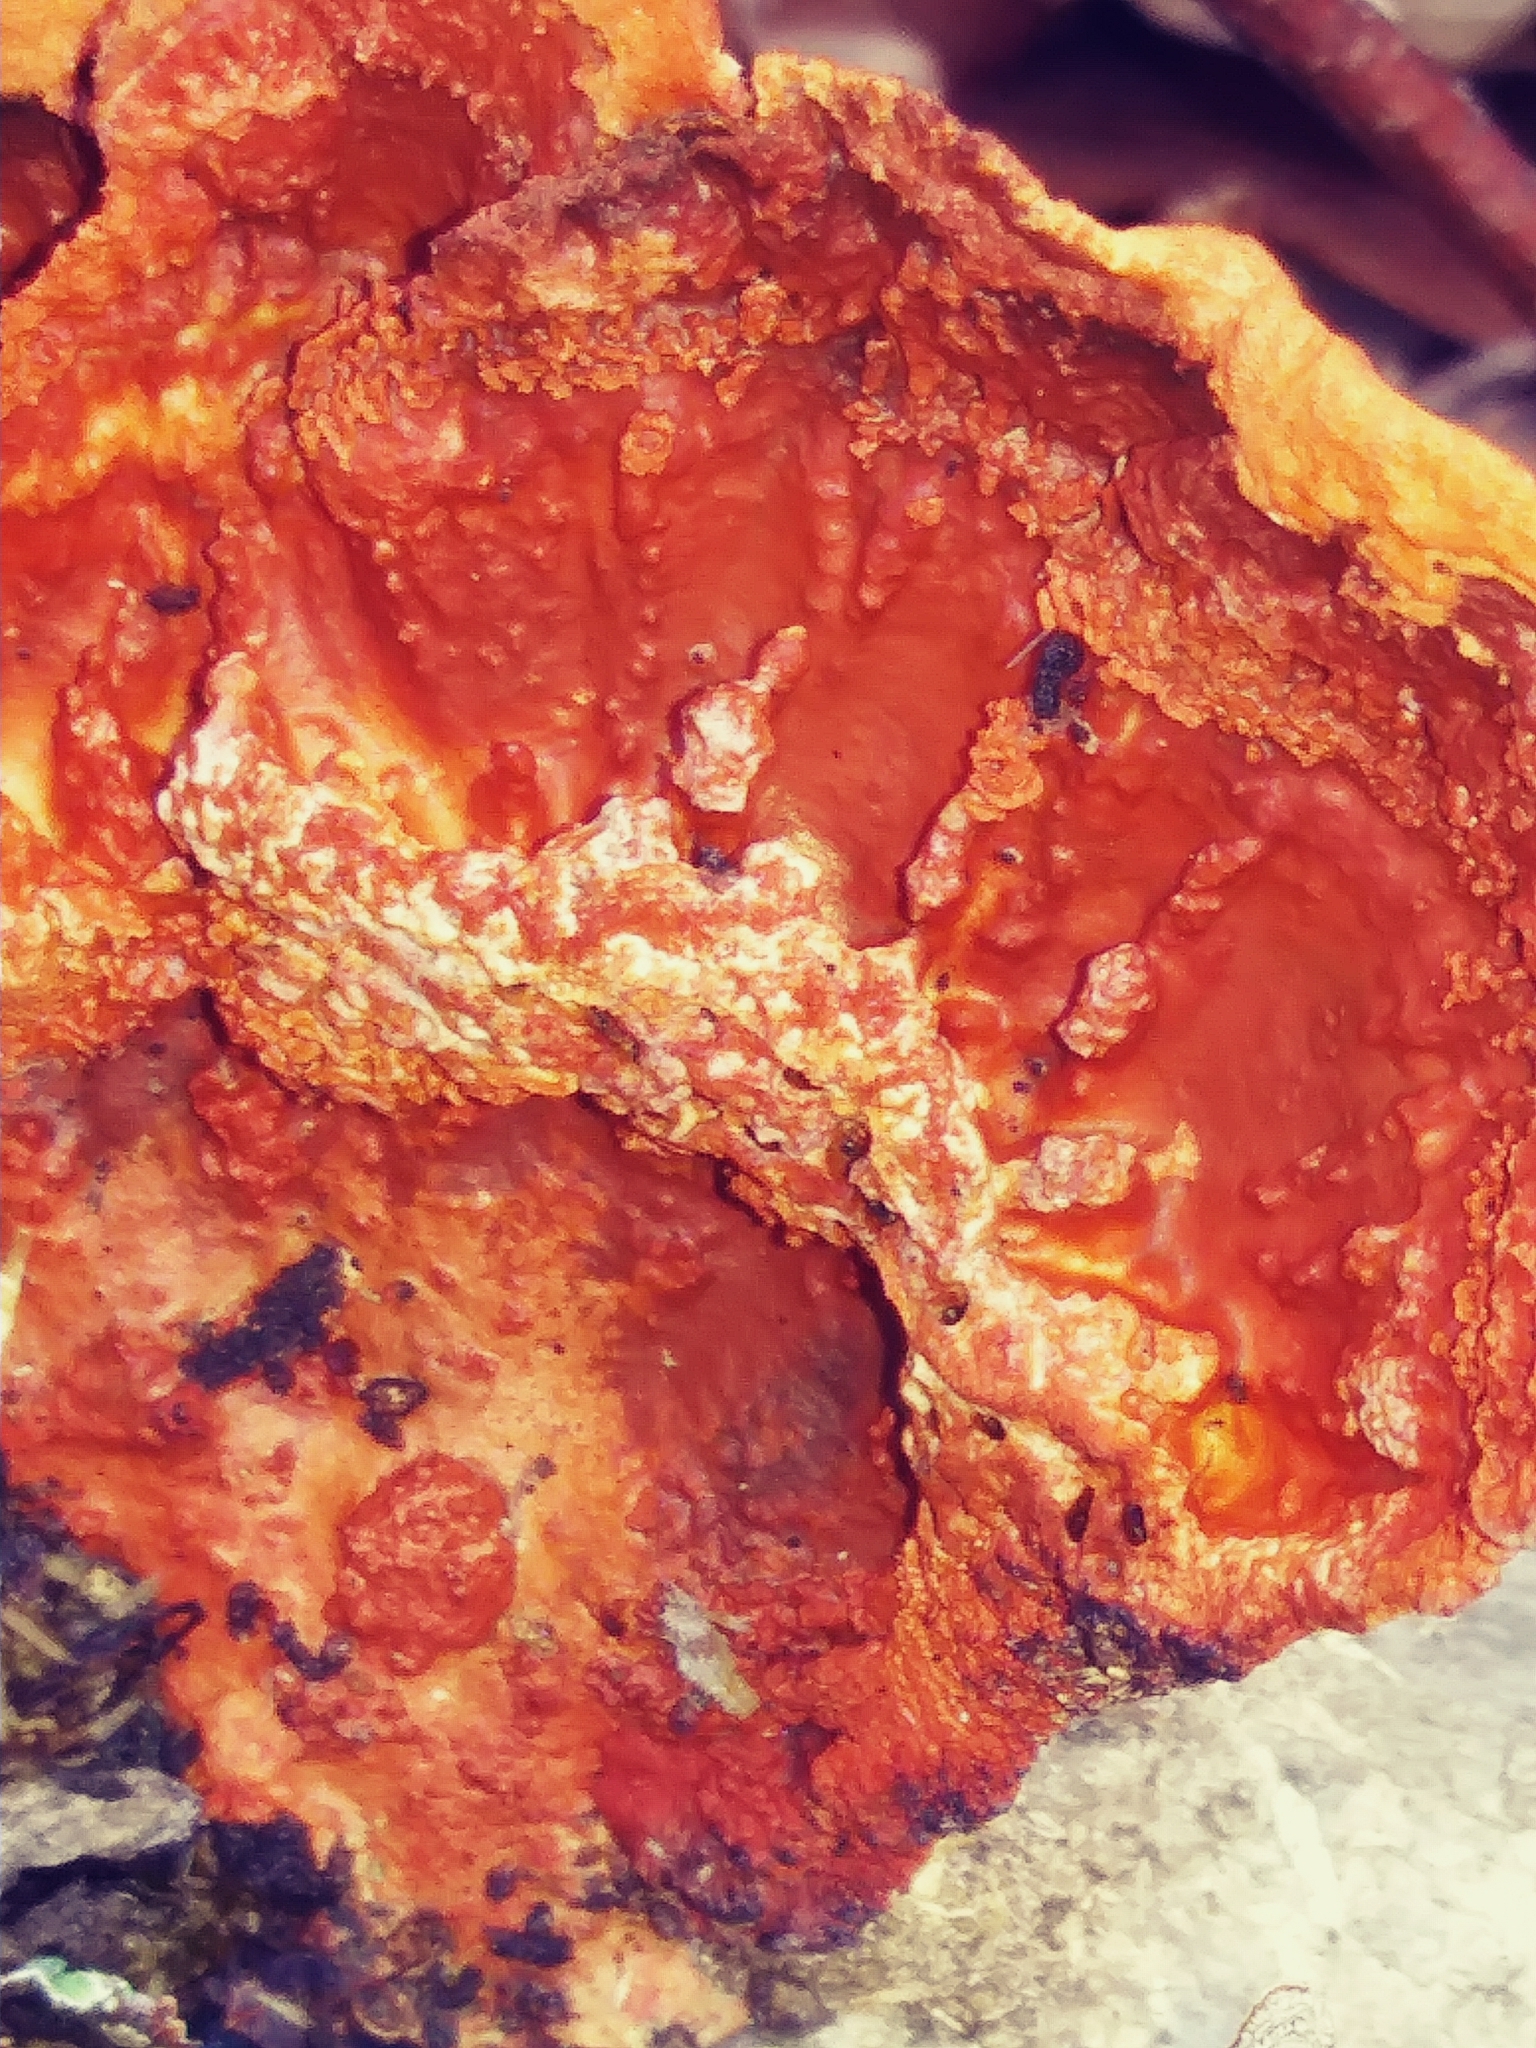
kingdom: Fungi
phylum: Basidiomycota
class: Agaricomycetes
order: Polyporales
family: Polyporaceae
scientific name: Polyporaceae
